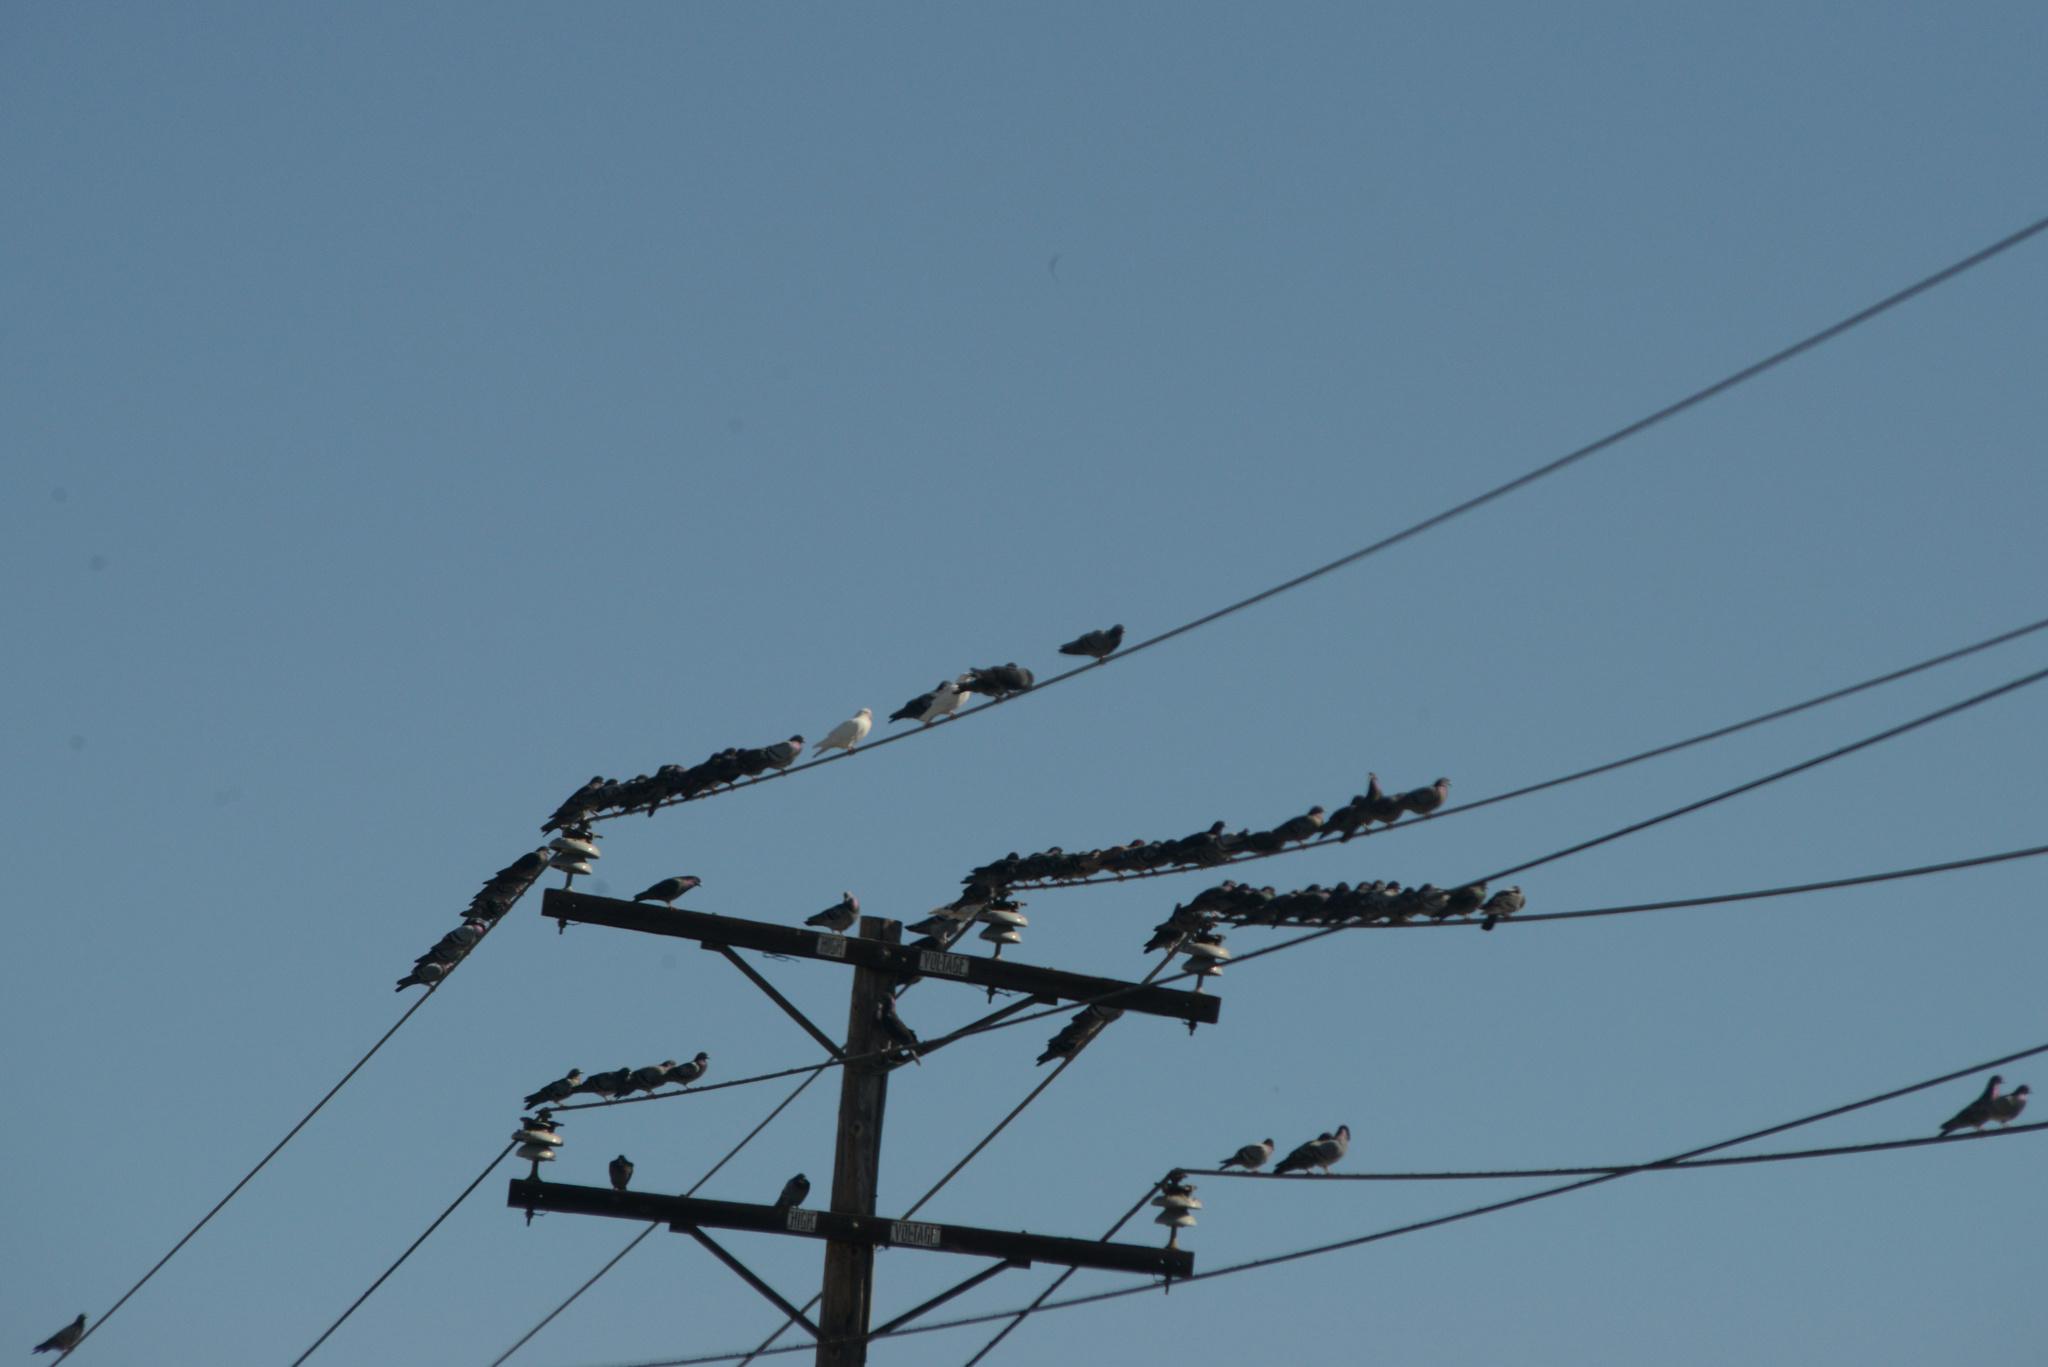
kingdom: Animalia
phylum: Chordata
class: Aves
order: Columbiformes
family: Columbidae
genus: Columba
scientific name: Columba livia
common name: Rock pigeon
